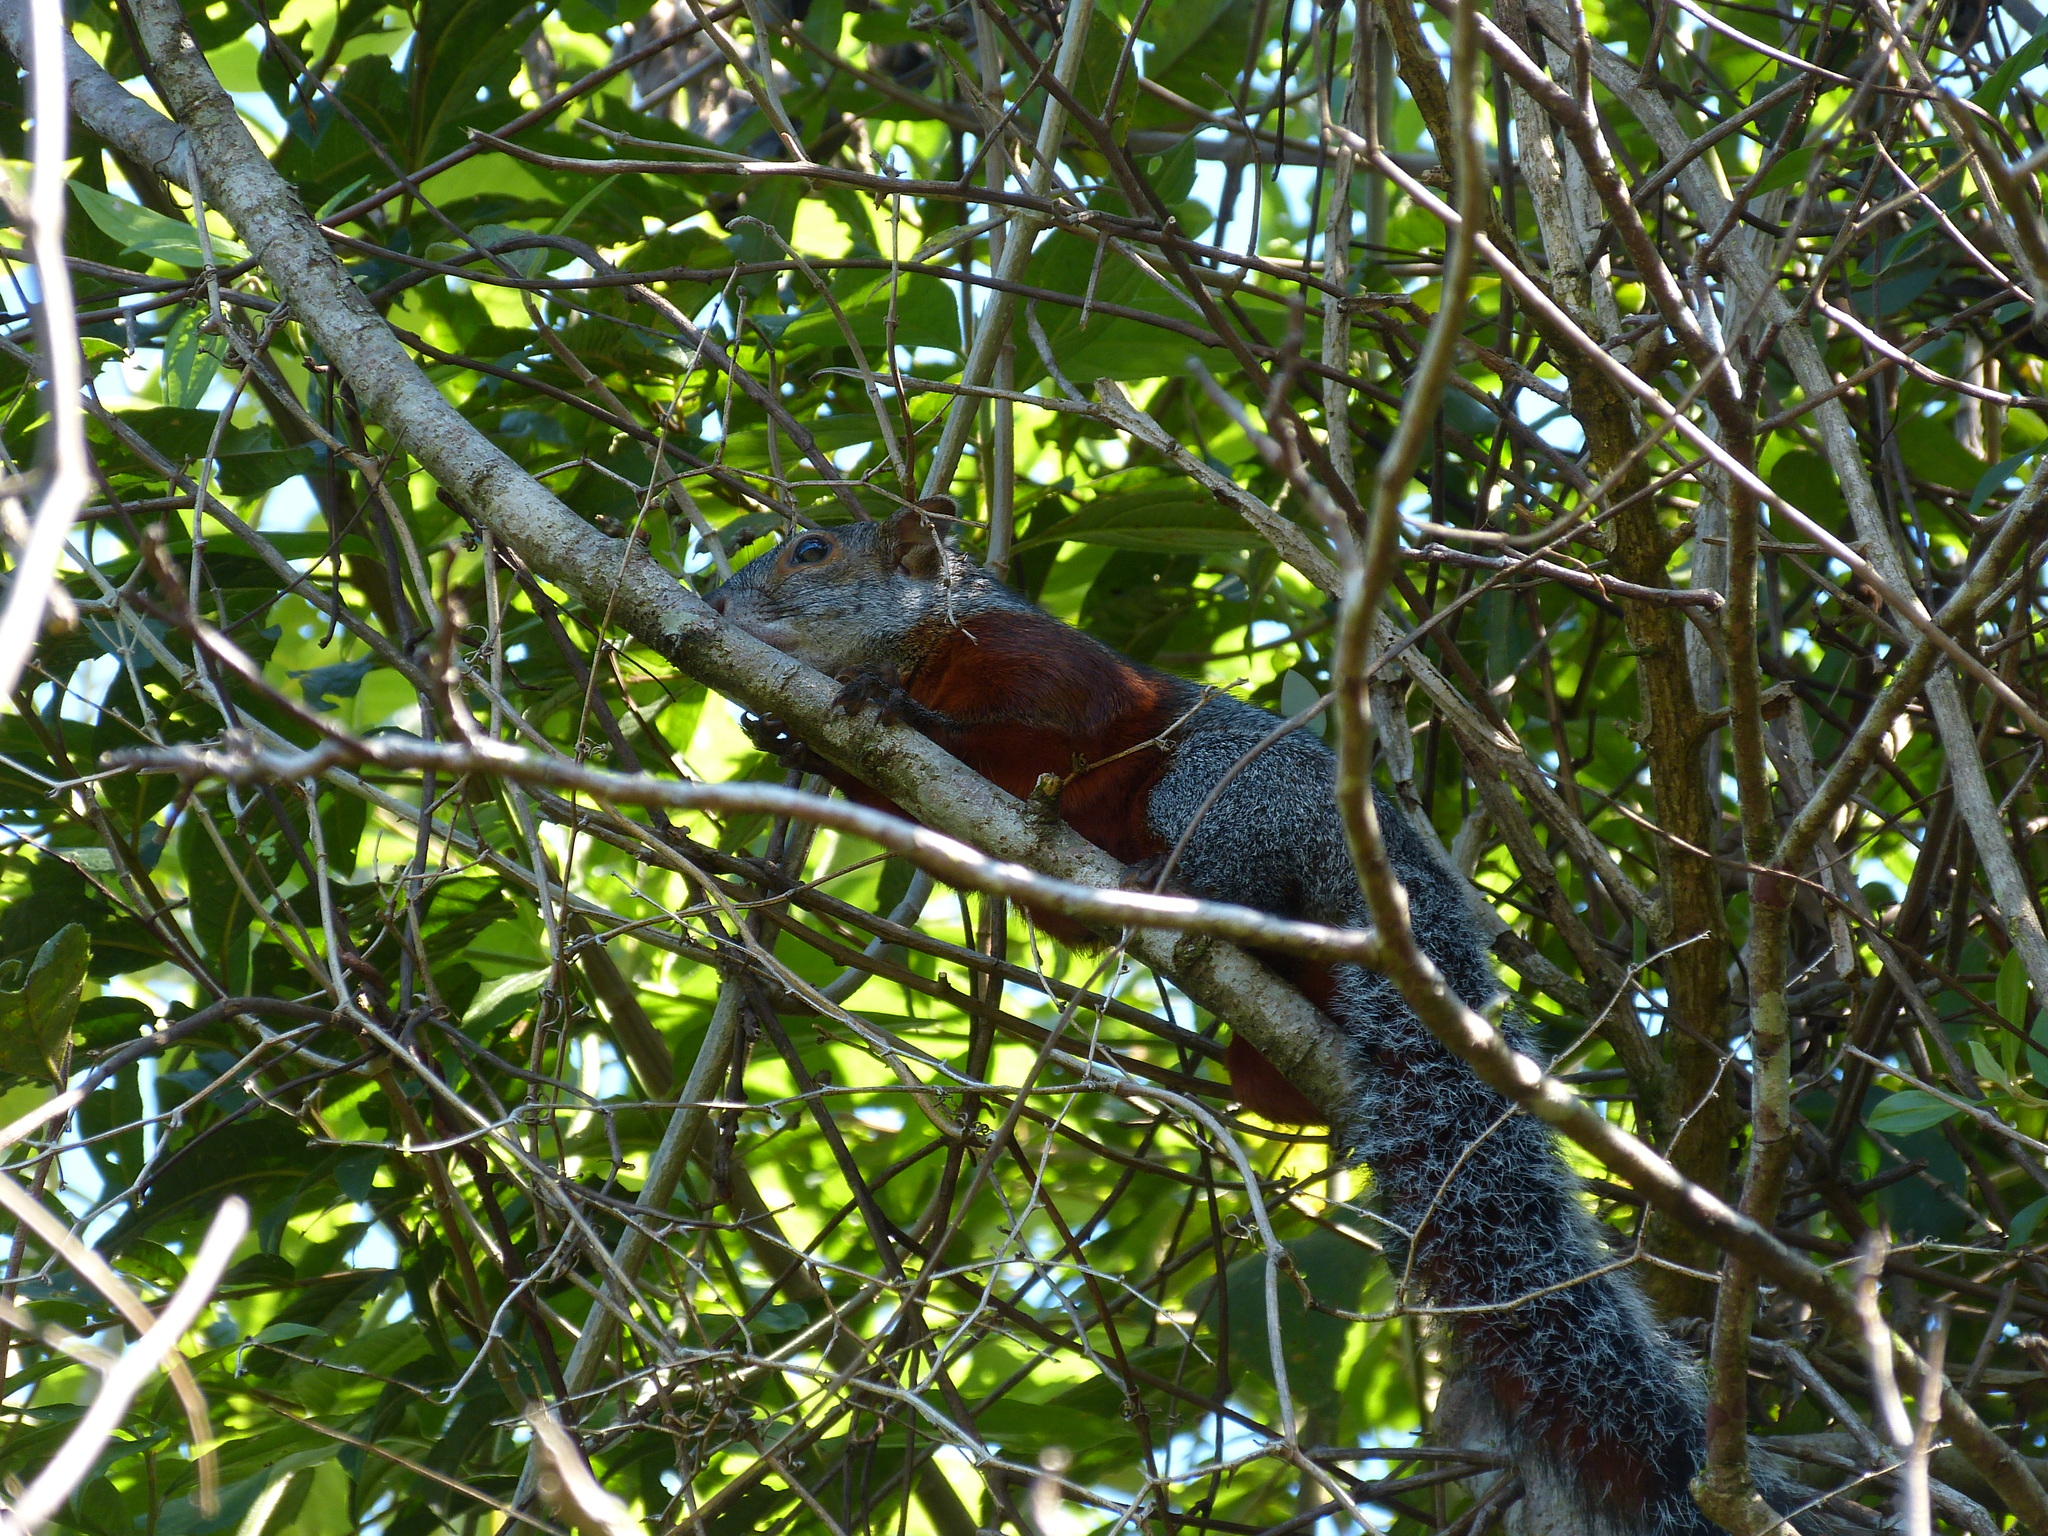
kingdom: Animalia
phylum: Chordata
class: Mammalia
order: Rodentia
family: Sciuridae
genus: Sciurus
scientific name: Sciurus aureogaster
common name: Red-bellied squirrel
